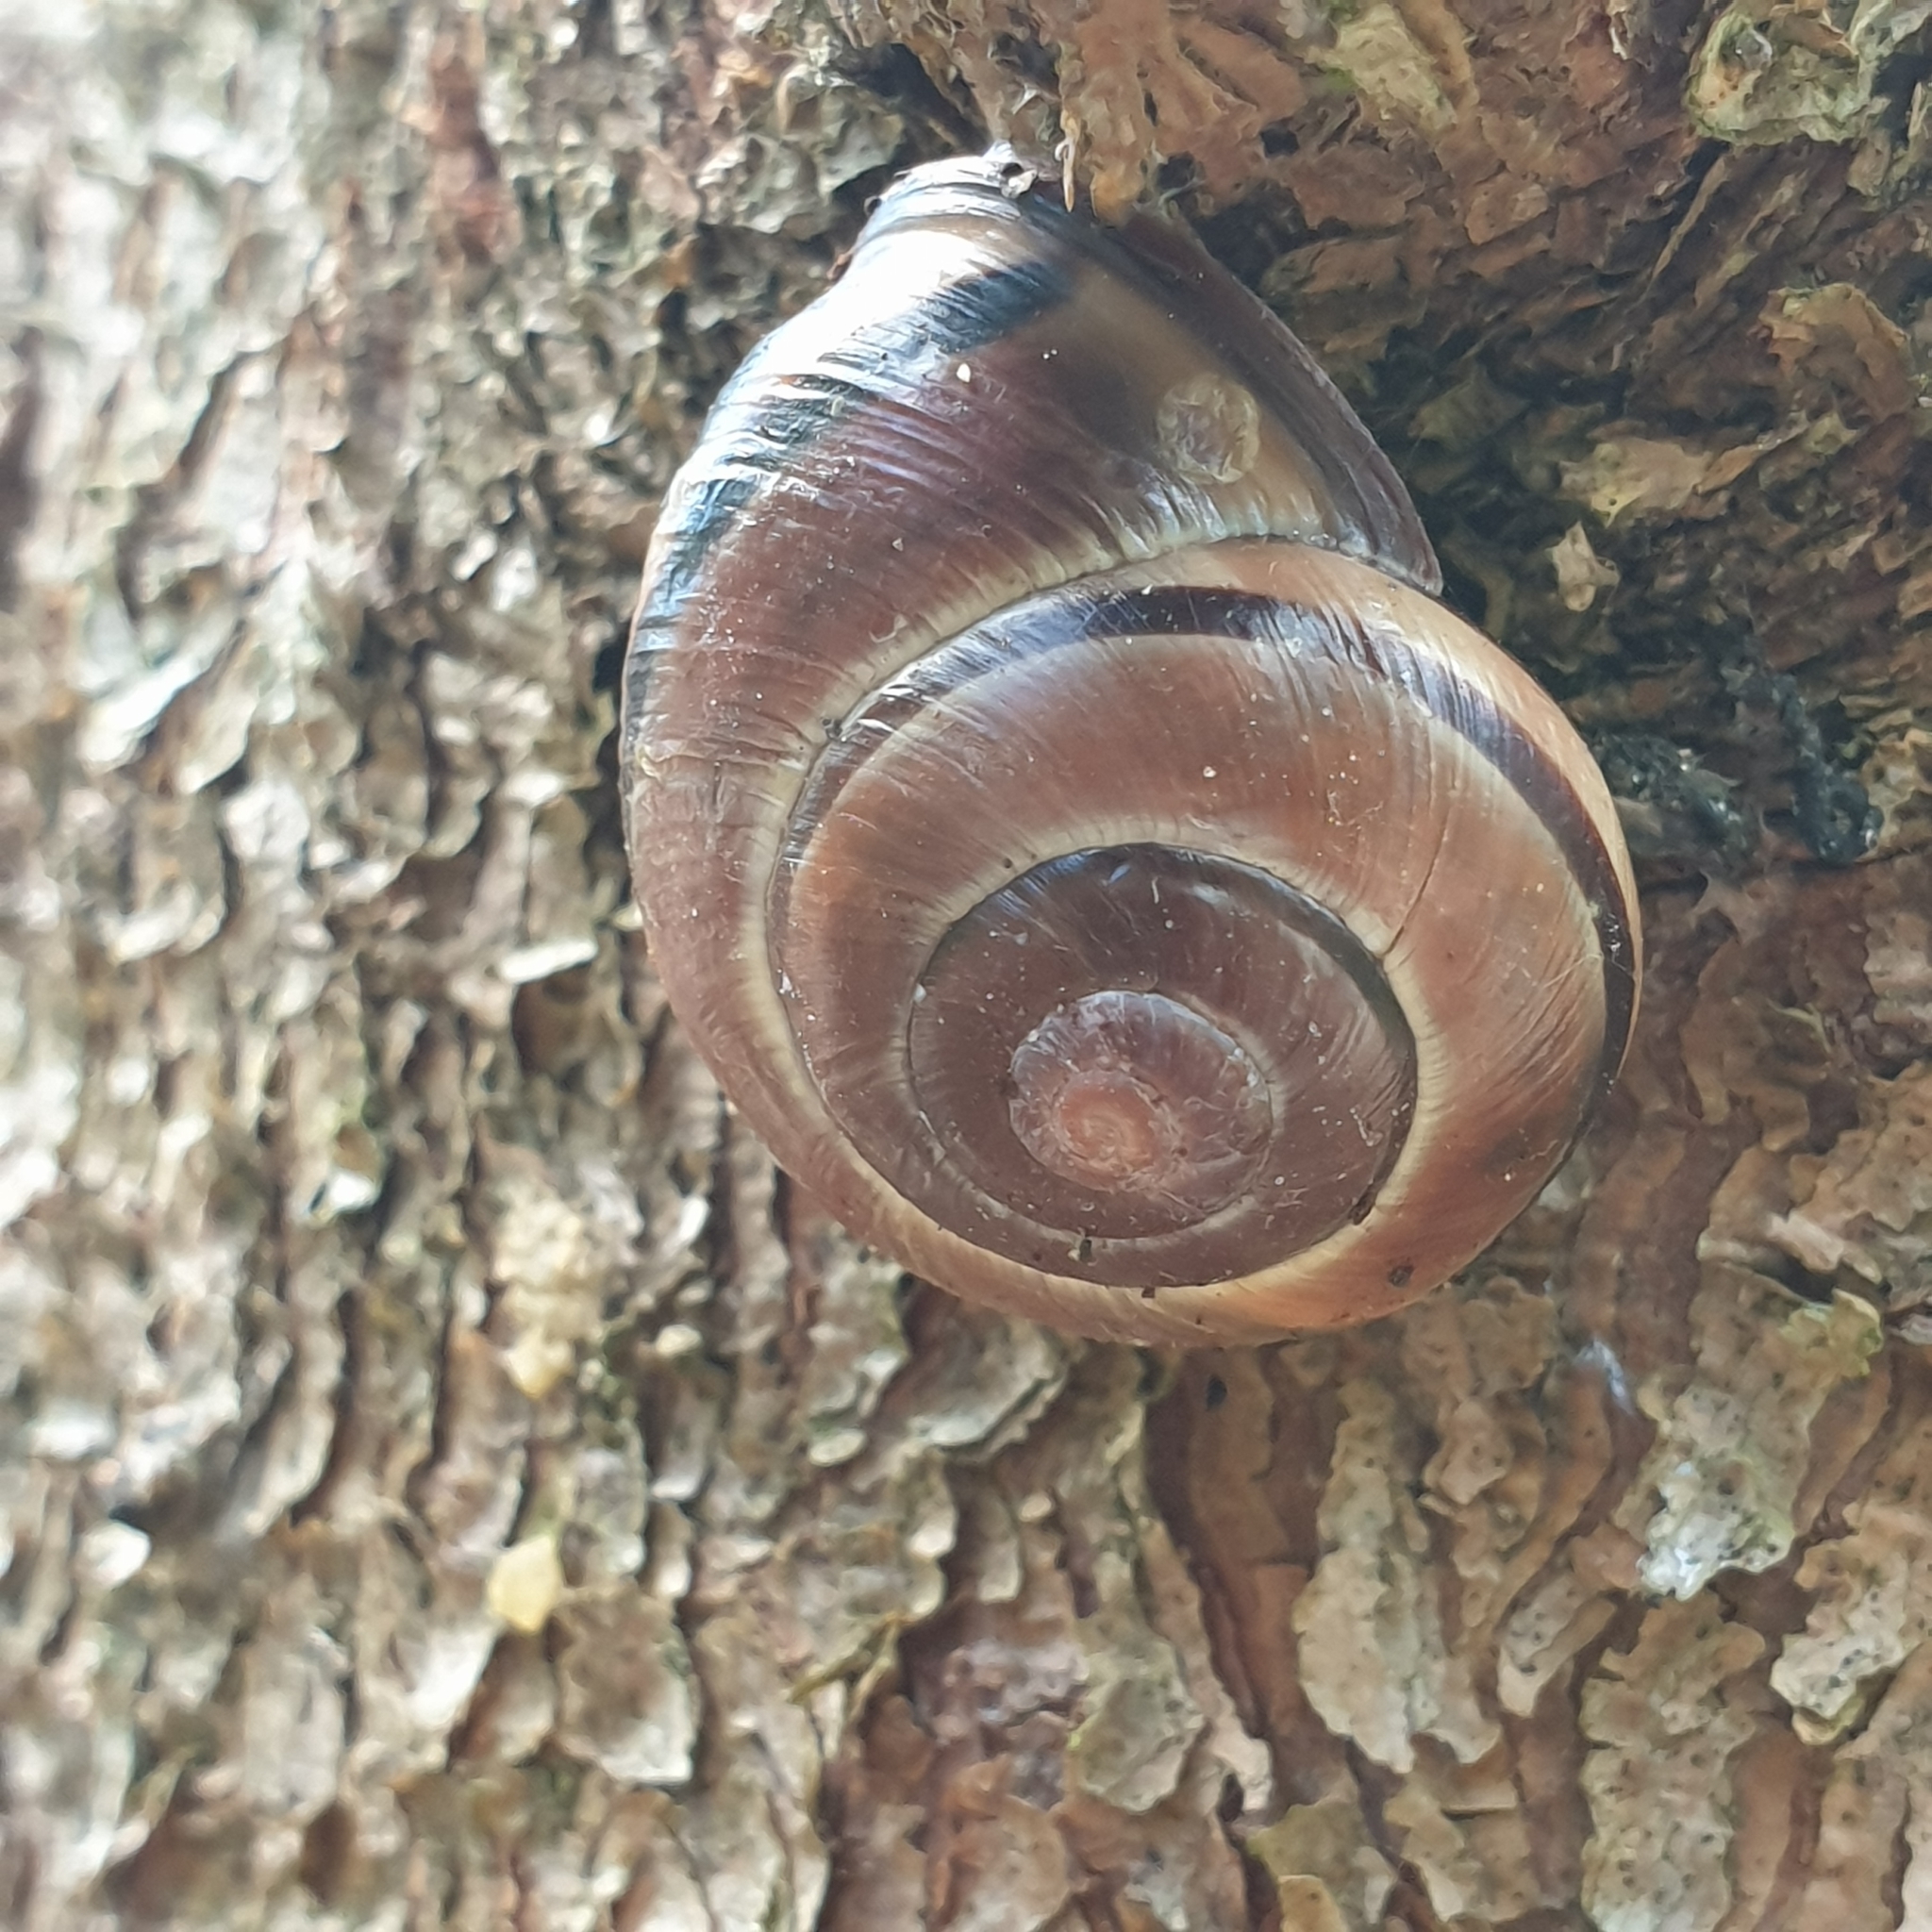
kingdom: Animalia
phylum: Mollusca
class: Gastropoda
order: Stylommatophora
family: Helicidae
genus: Cepaea
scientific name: Cepaea nemoralis
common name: Grovesnail
